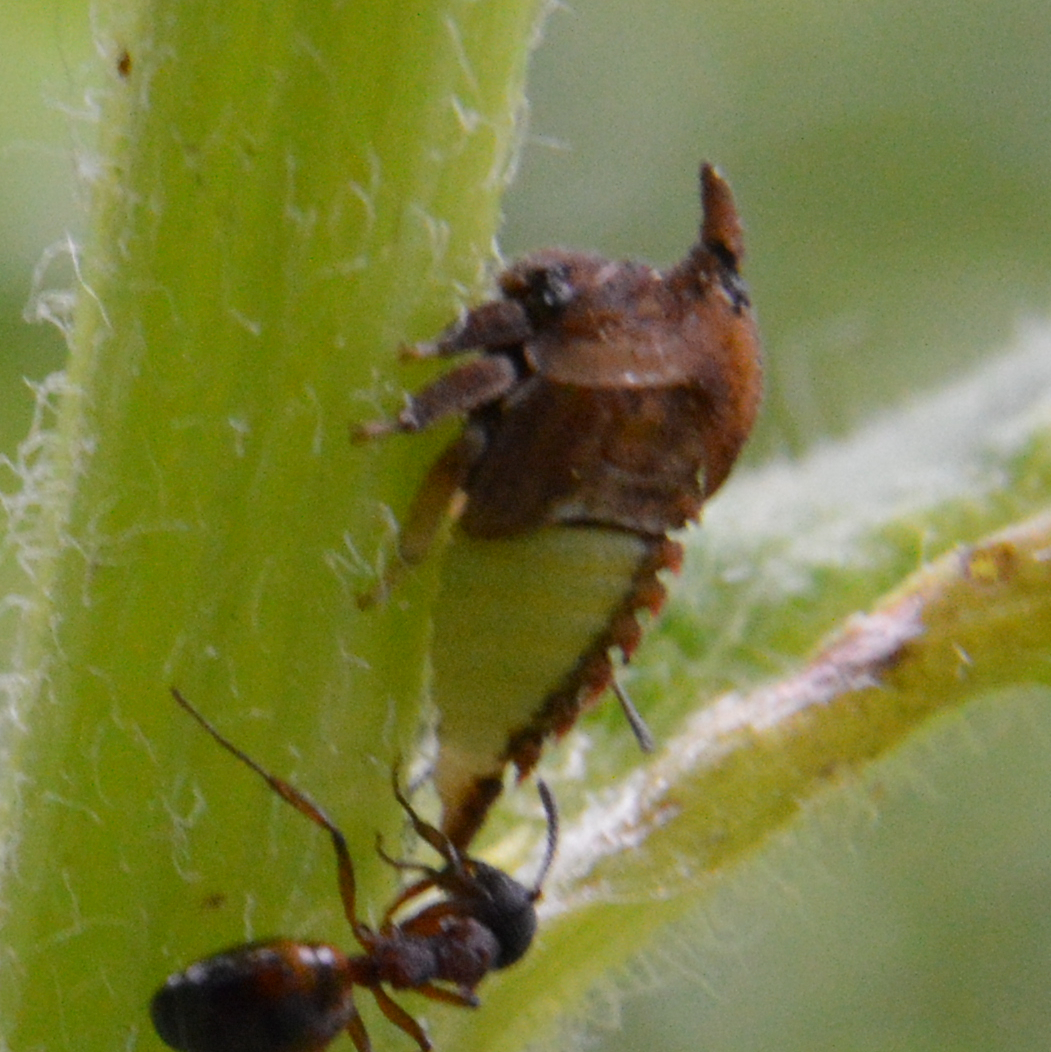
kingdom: Animalia
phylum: Arthropoda
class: Insecta
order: Hemiptera
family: Membracidae
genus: Enchenopa
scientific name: Enchenopa latipes
